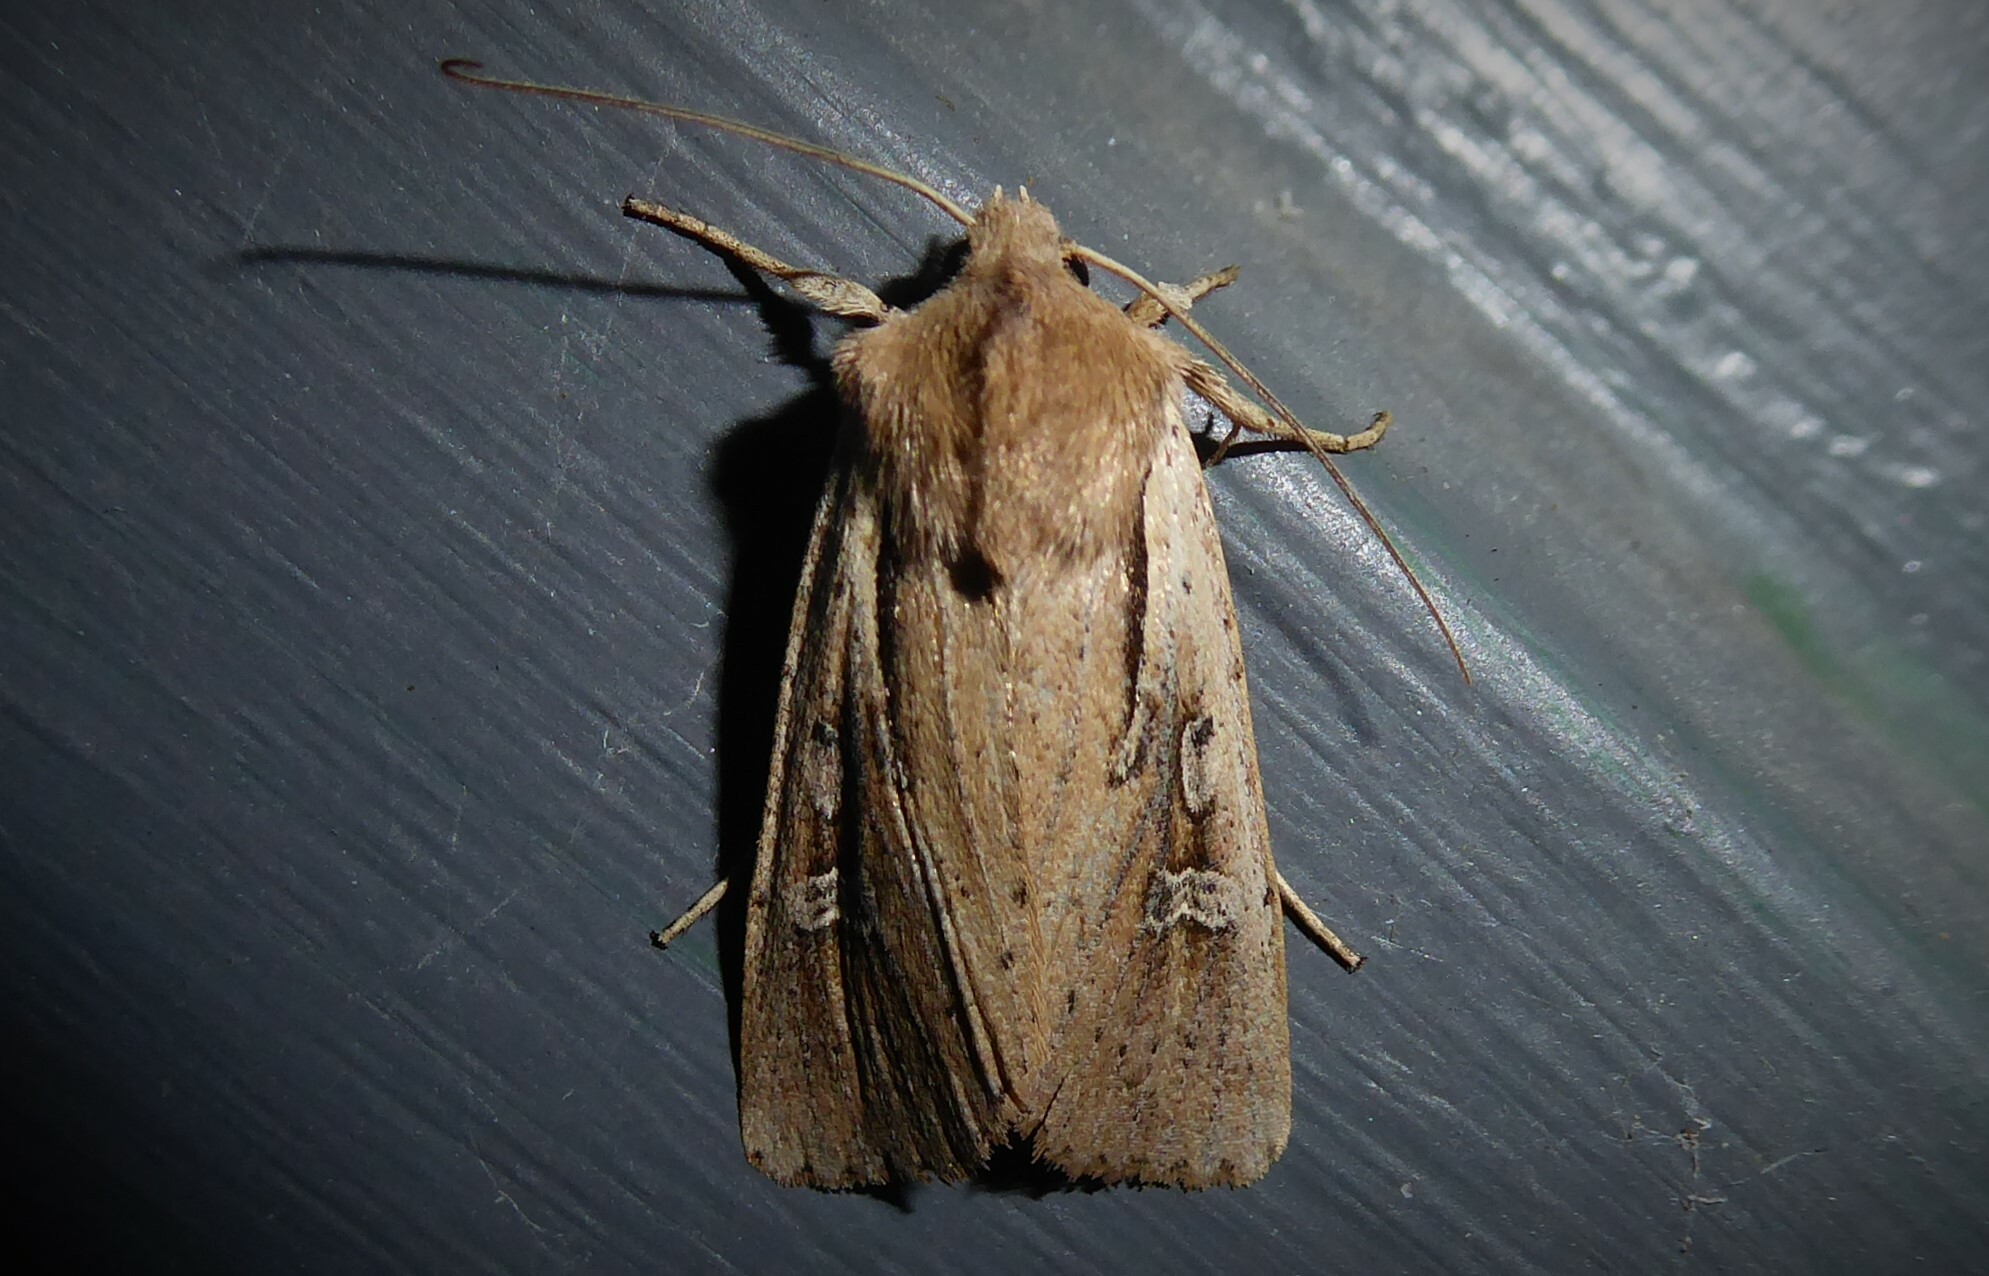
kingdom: Animalia
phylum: Arthropoda
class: Insecta
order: Lepidoptera
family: Noctuidae
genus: Ichneutica
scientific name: Ichneutica atristriga
